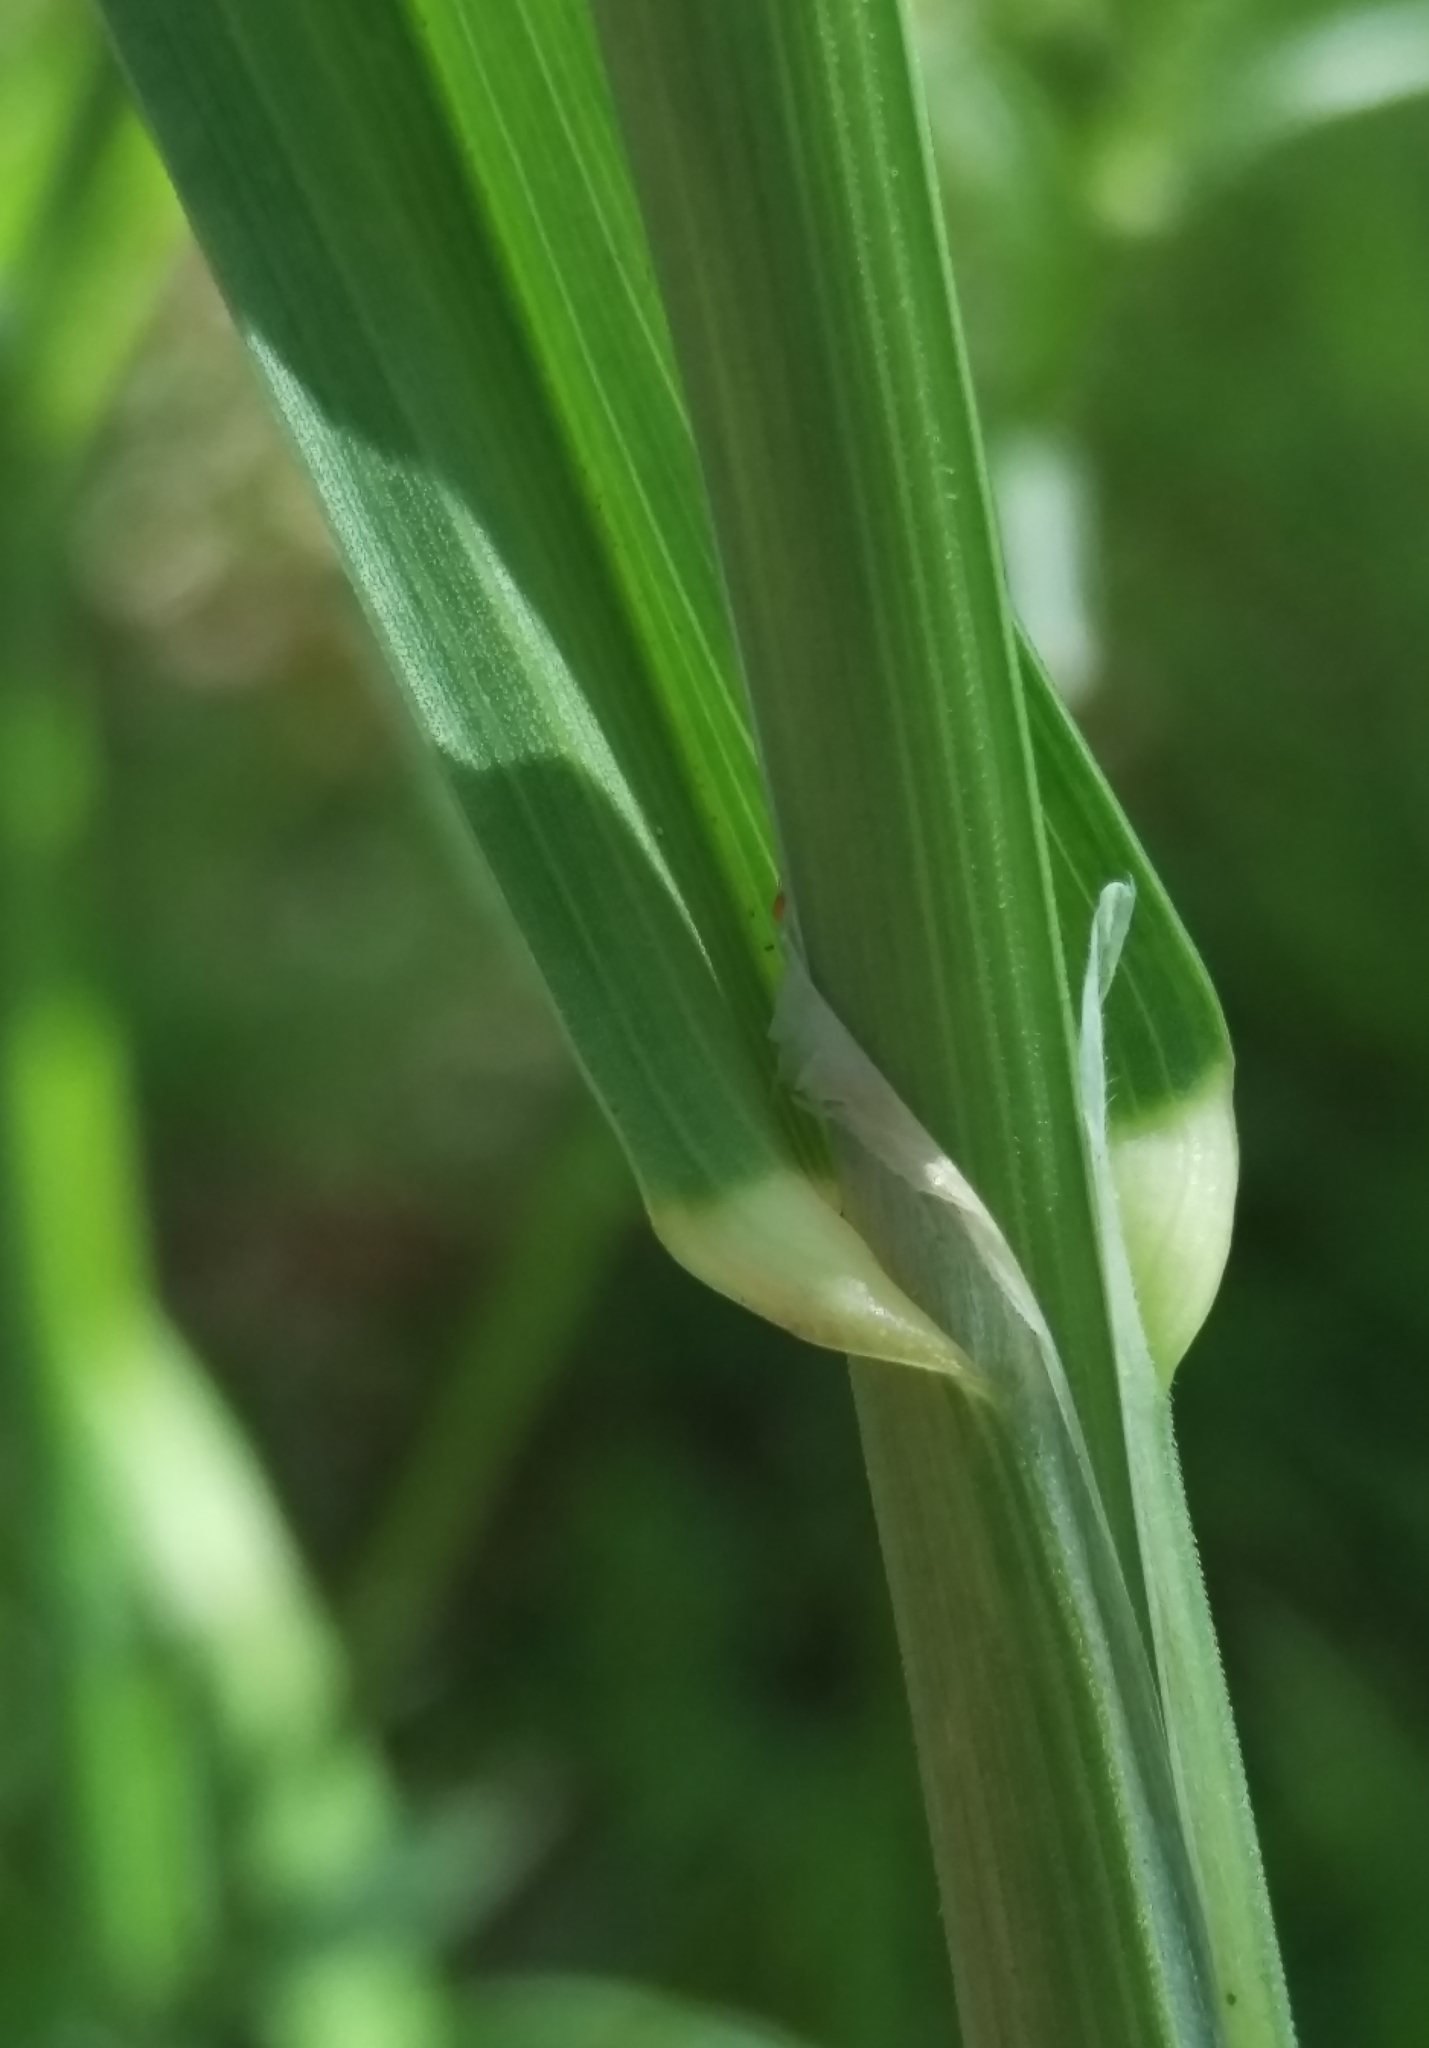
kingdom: Plantae
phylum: Tracheophyta
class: Liliopsida
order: Poales
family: Poaceae
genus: Dactylis
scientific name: Dactylis glomerata
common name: Orchardgrass
